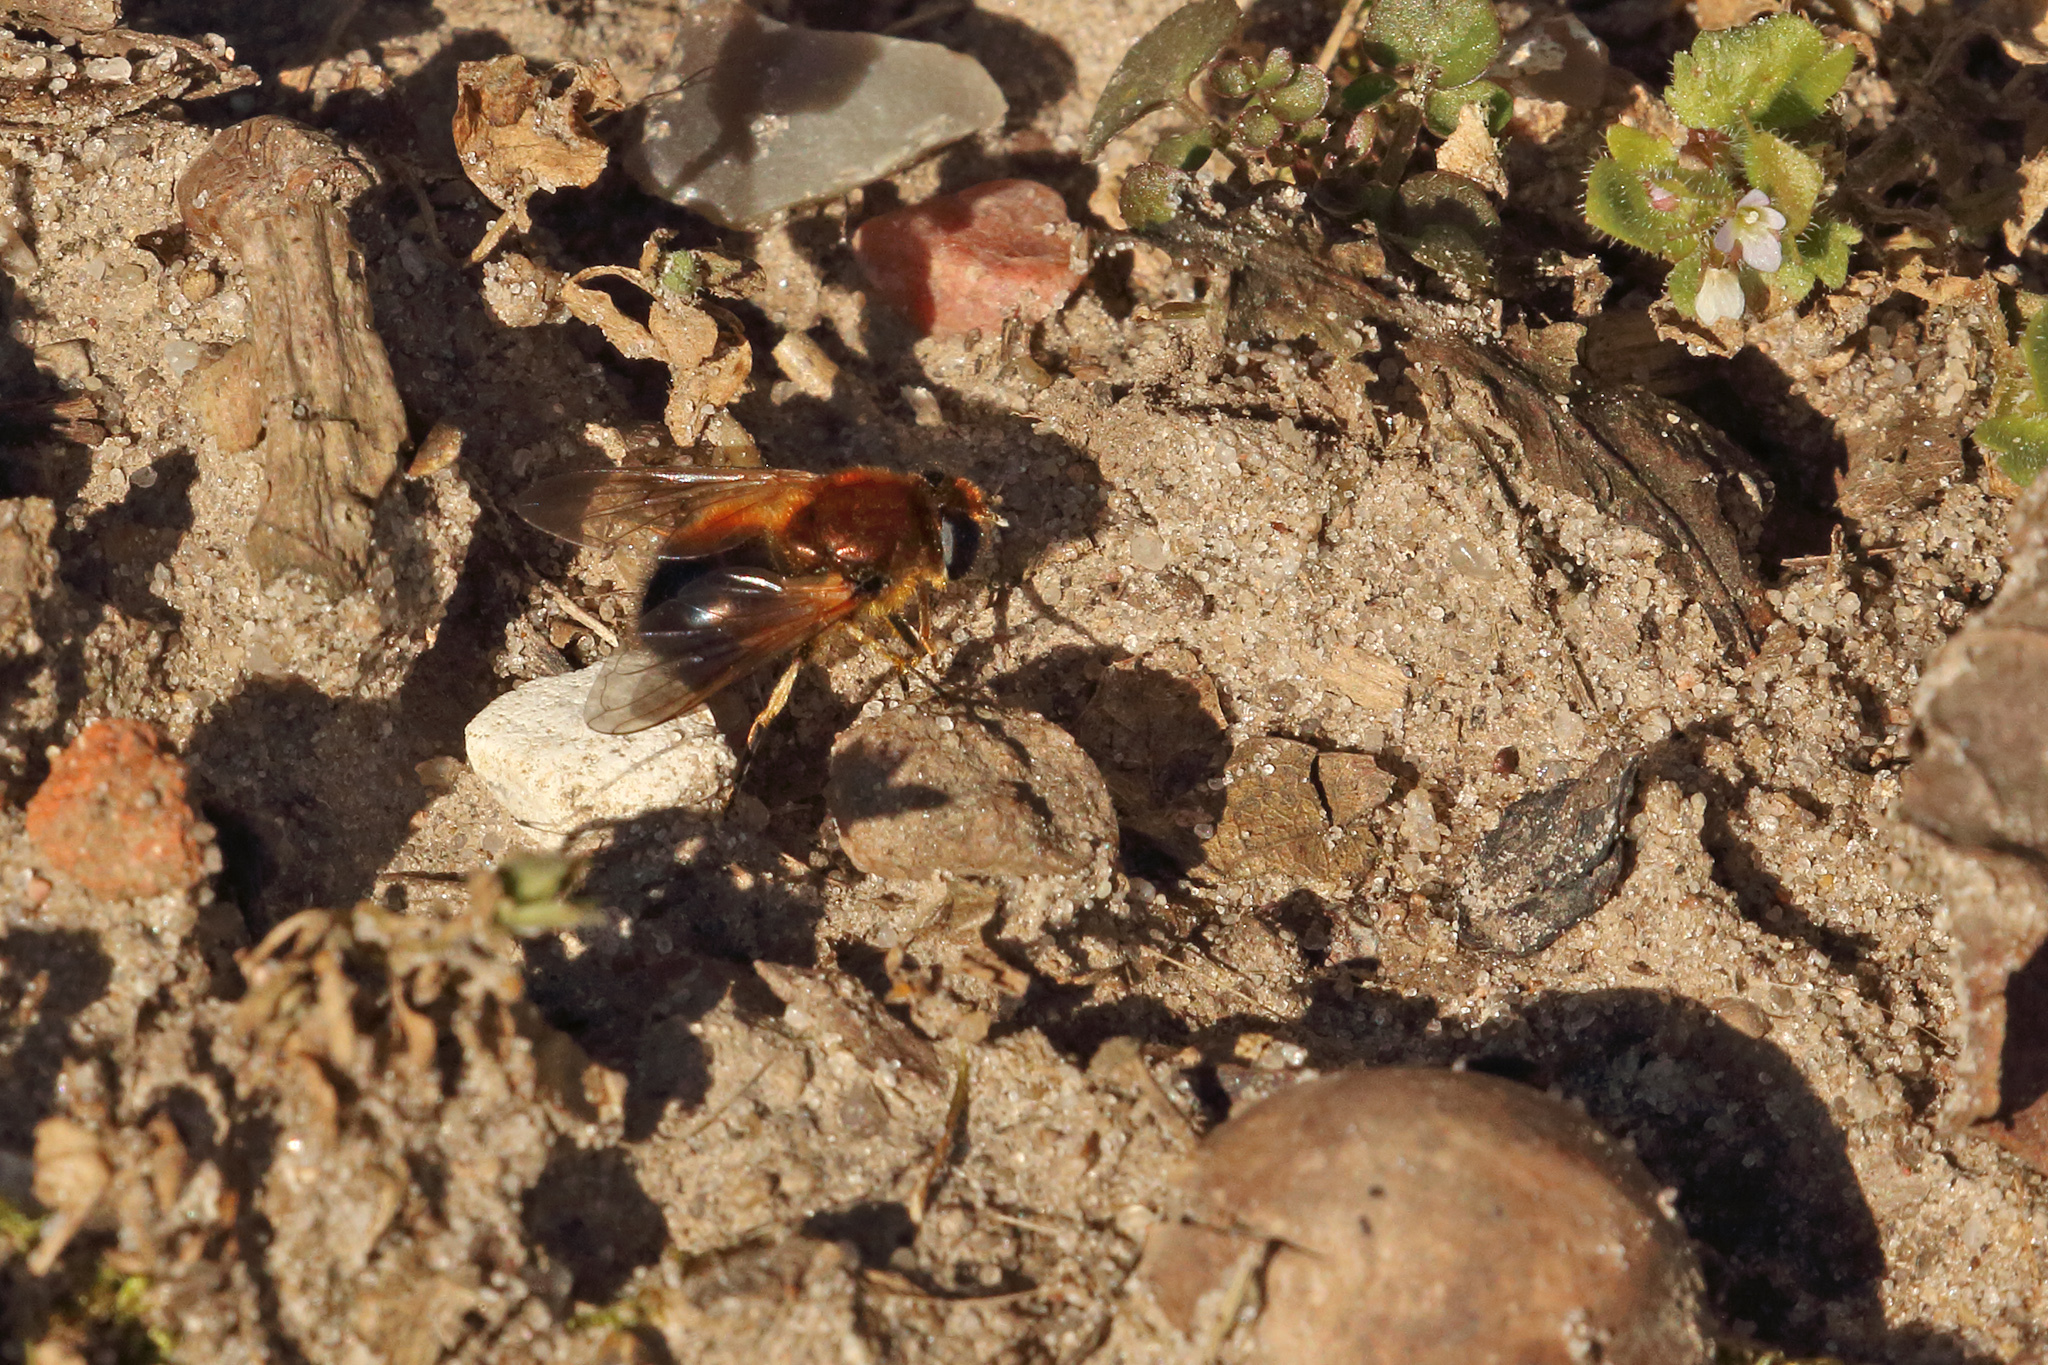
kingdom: Animalia
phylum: Arthropoda
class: Insecta
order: Diptera
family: Syrphidae
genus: Cheilosia
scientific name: Cheilosia corydon
